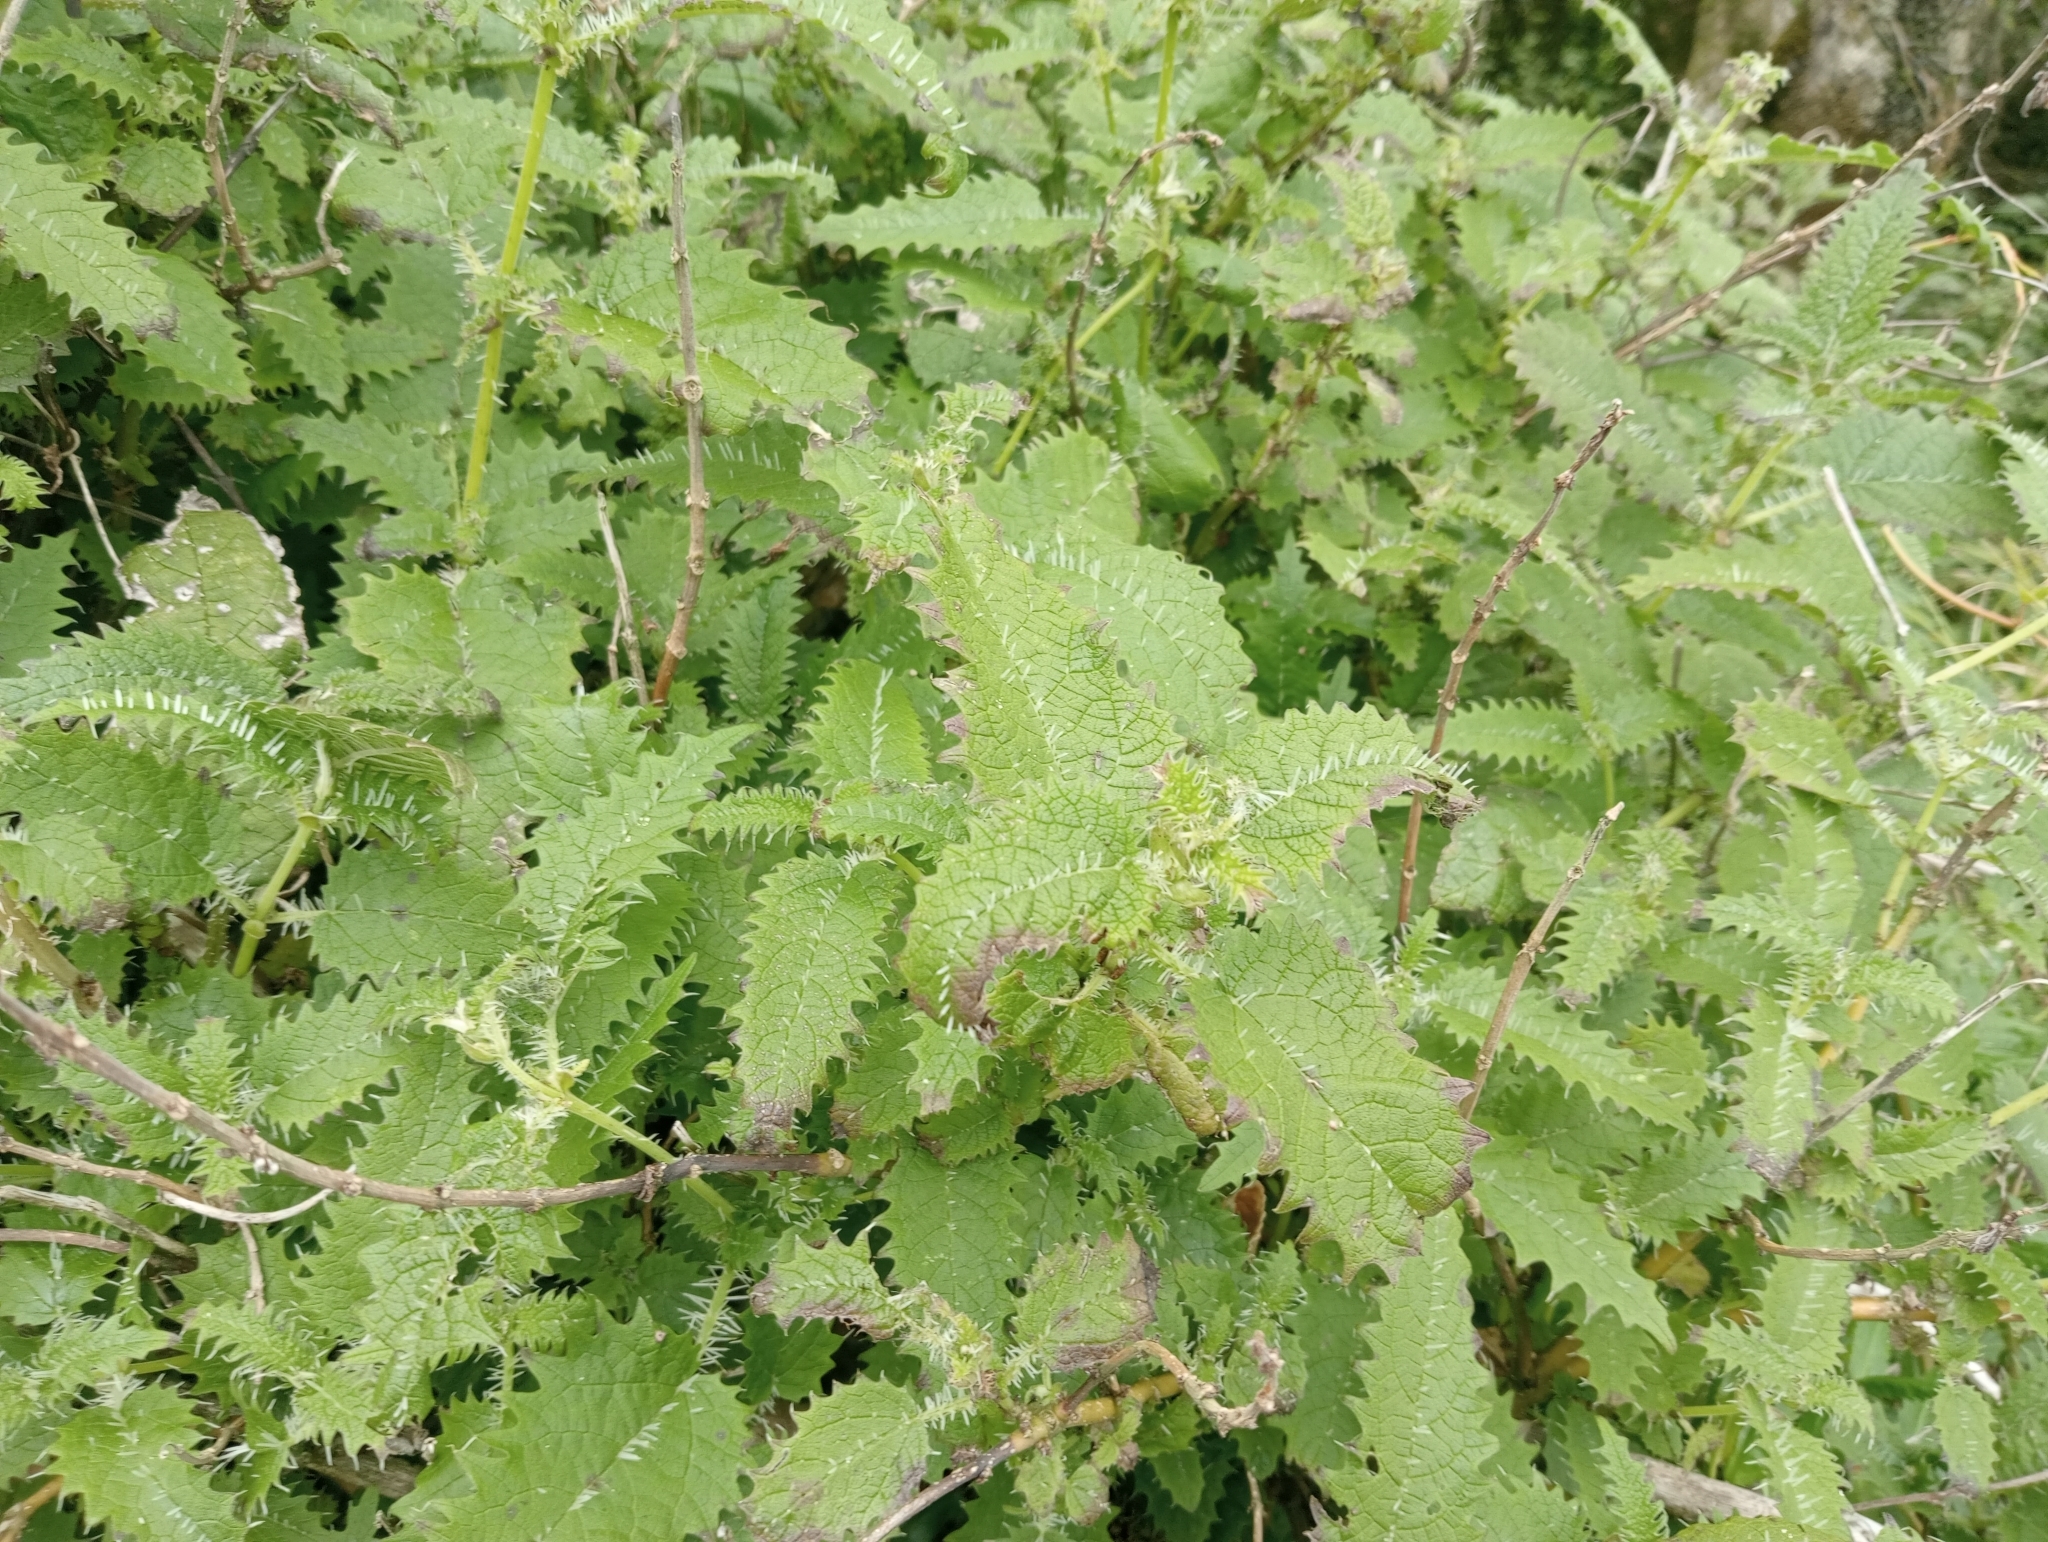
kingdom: Plantae
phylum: Tracheophyta
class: Magnoliopsida
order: Rosales
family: Urticaceae
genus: Urtica
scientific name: Urtica ferox
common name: Tree nettle
